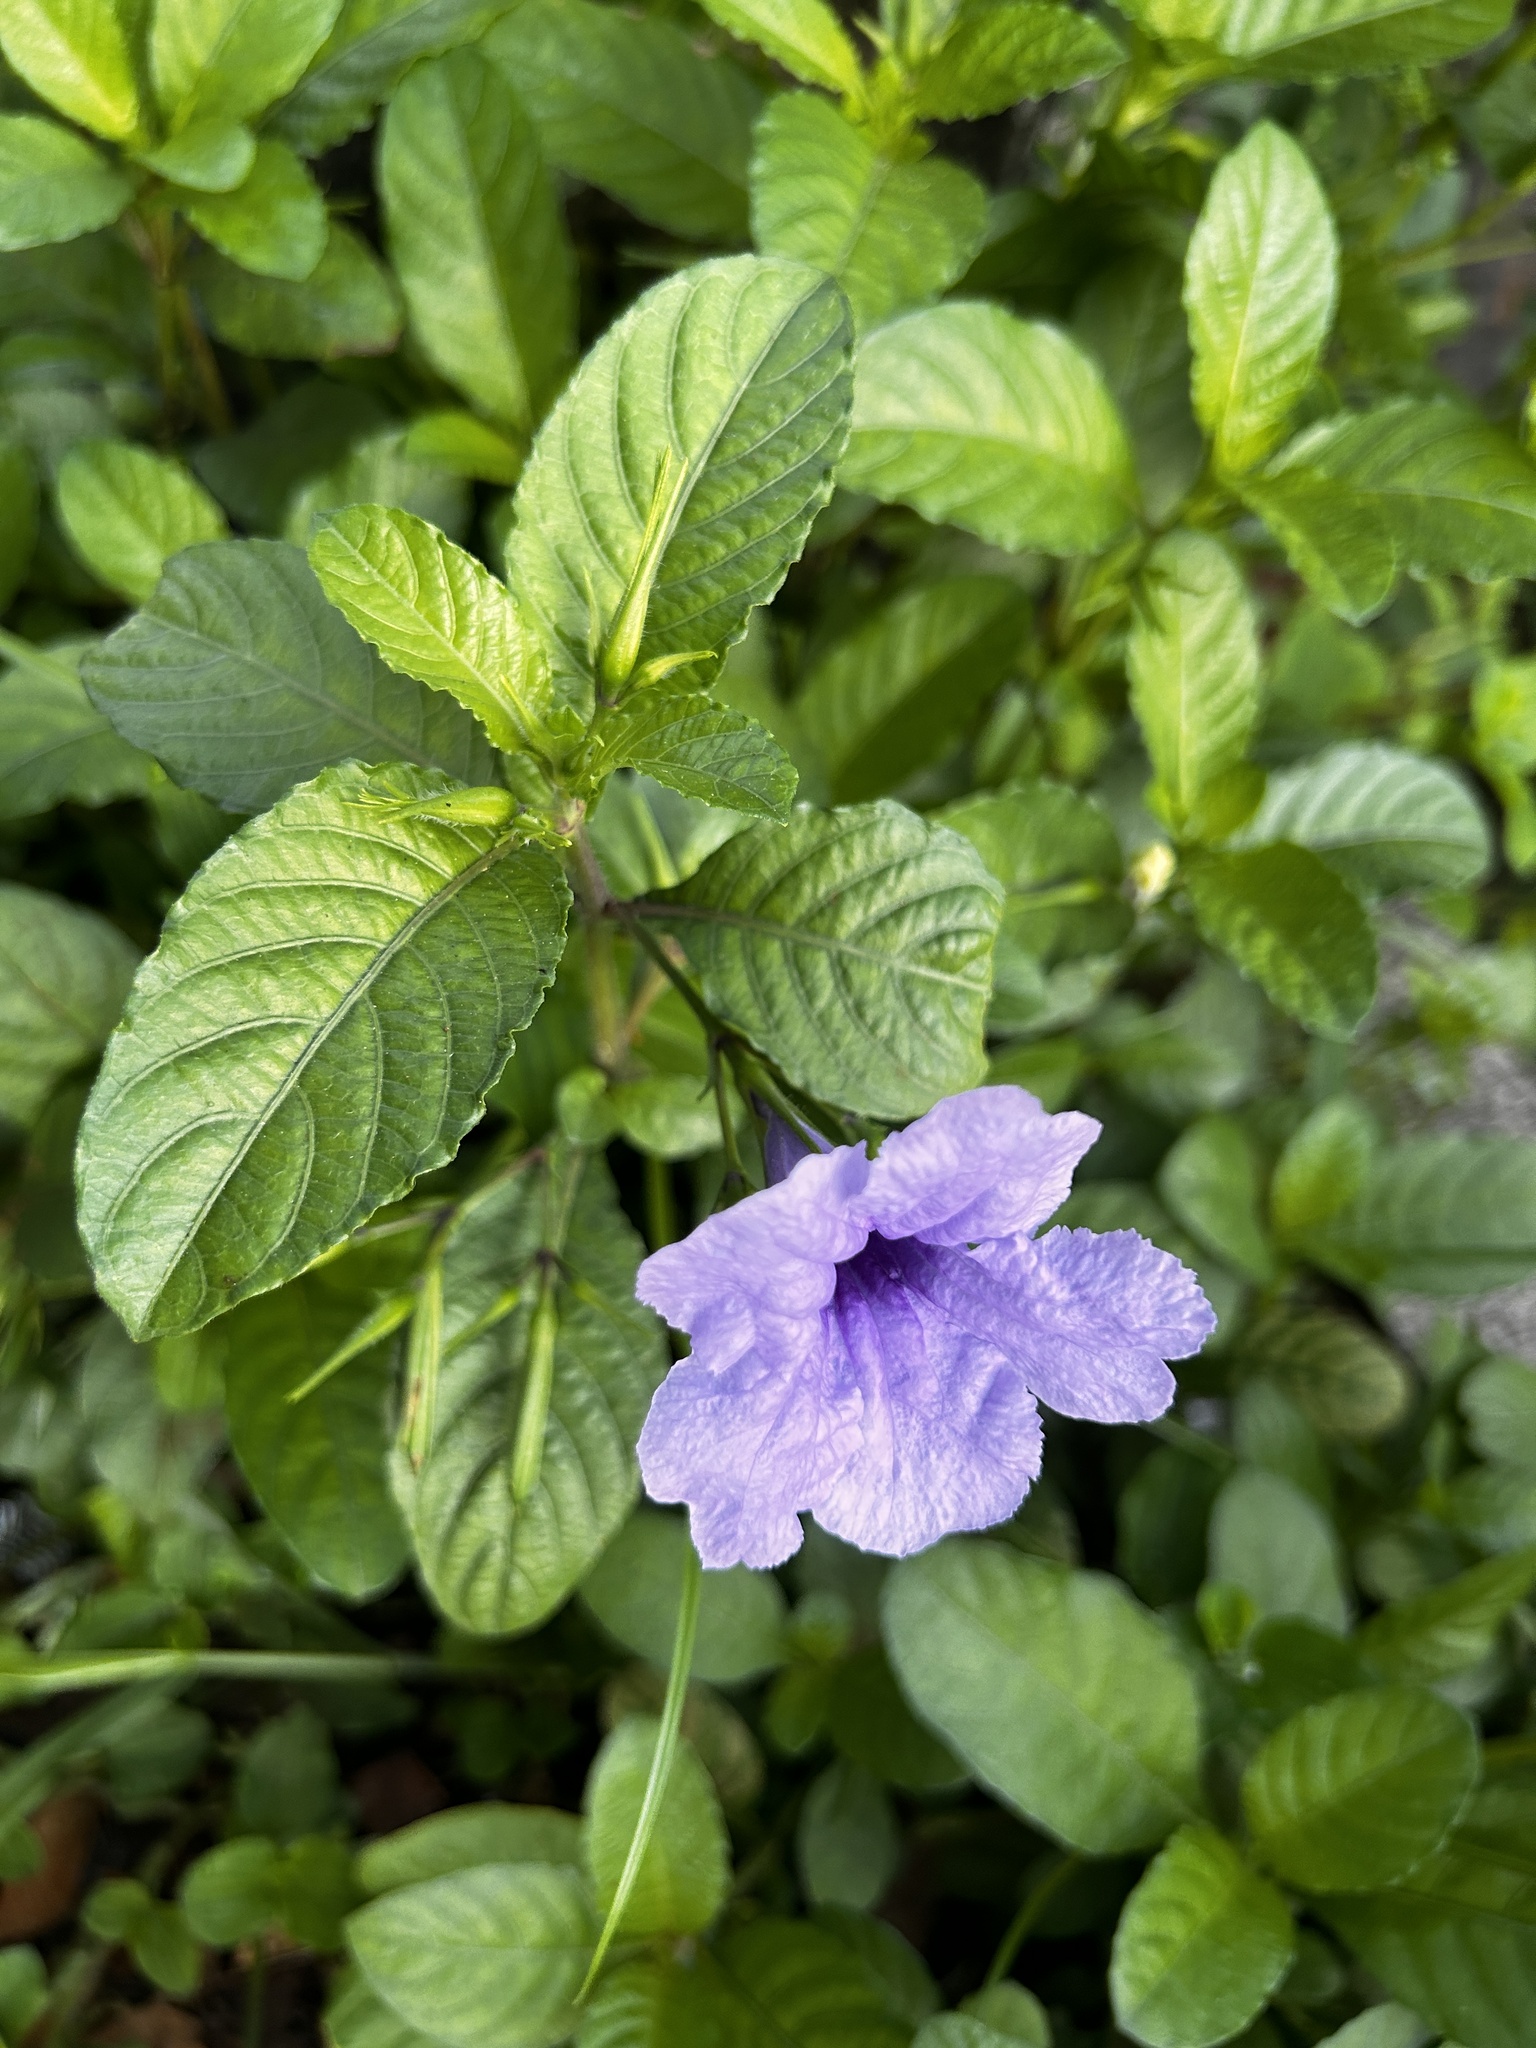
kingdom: Plantae
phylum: Tracheophyta
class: Magnoliopsida
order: Lamiales
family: Acanthaceae
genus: Ruellia
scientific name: Ruellia tuberosa
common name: Devil's bit
